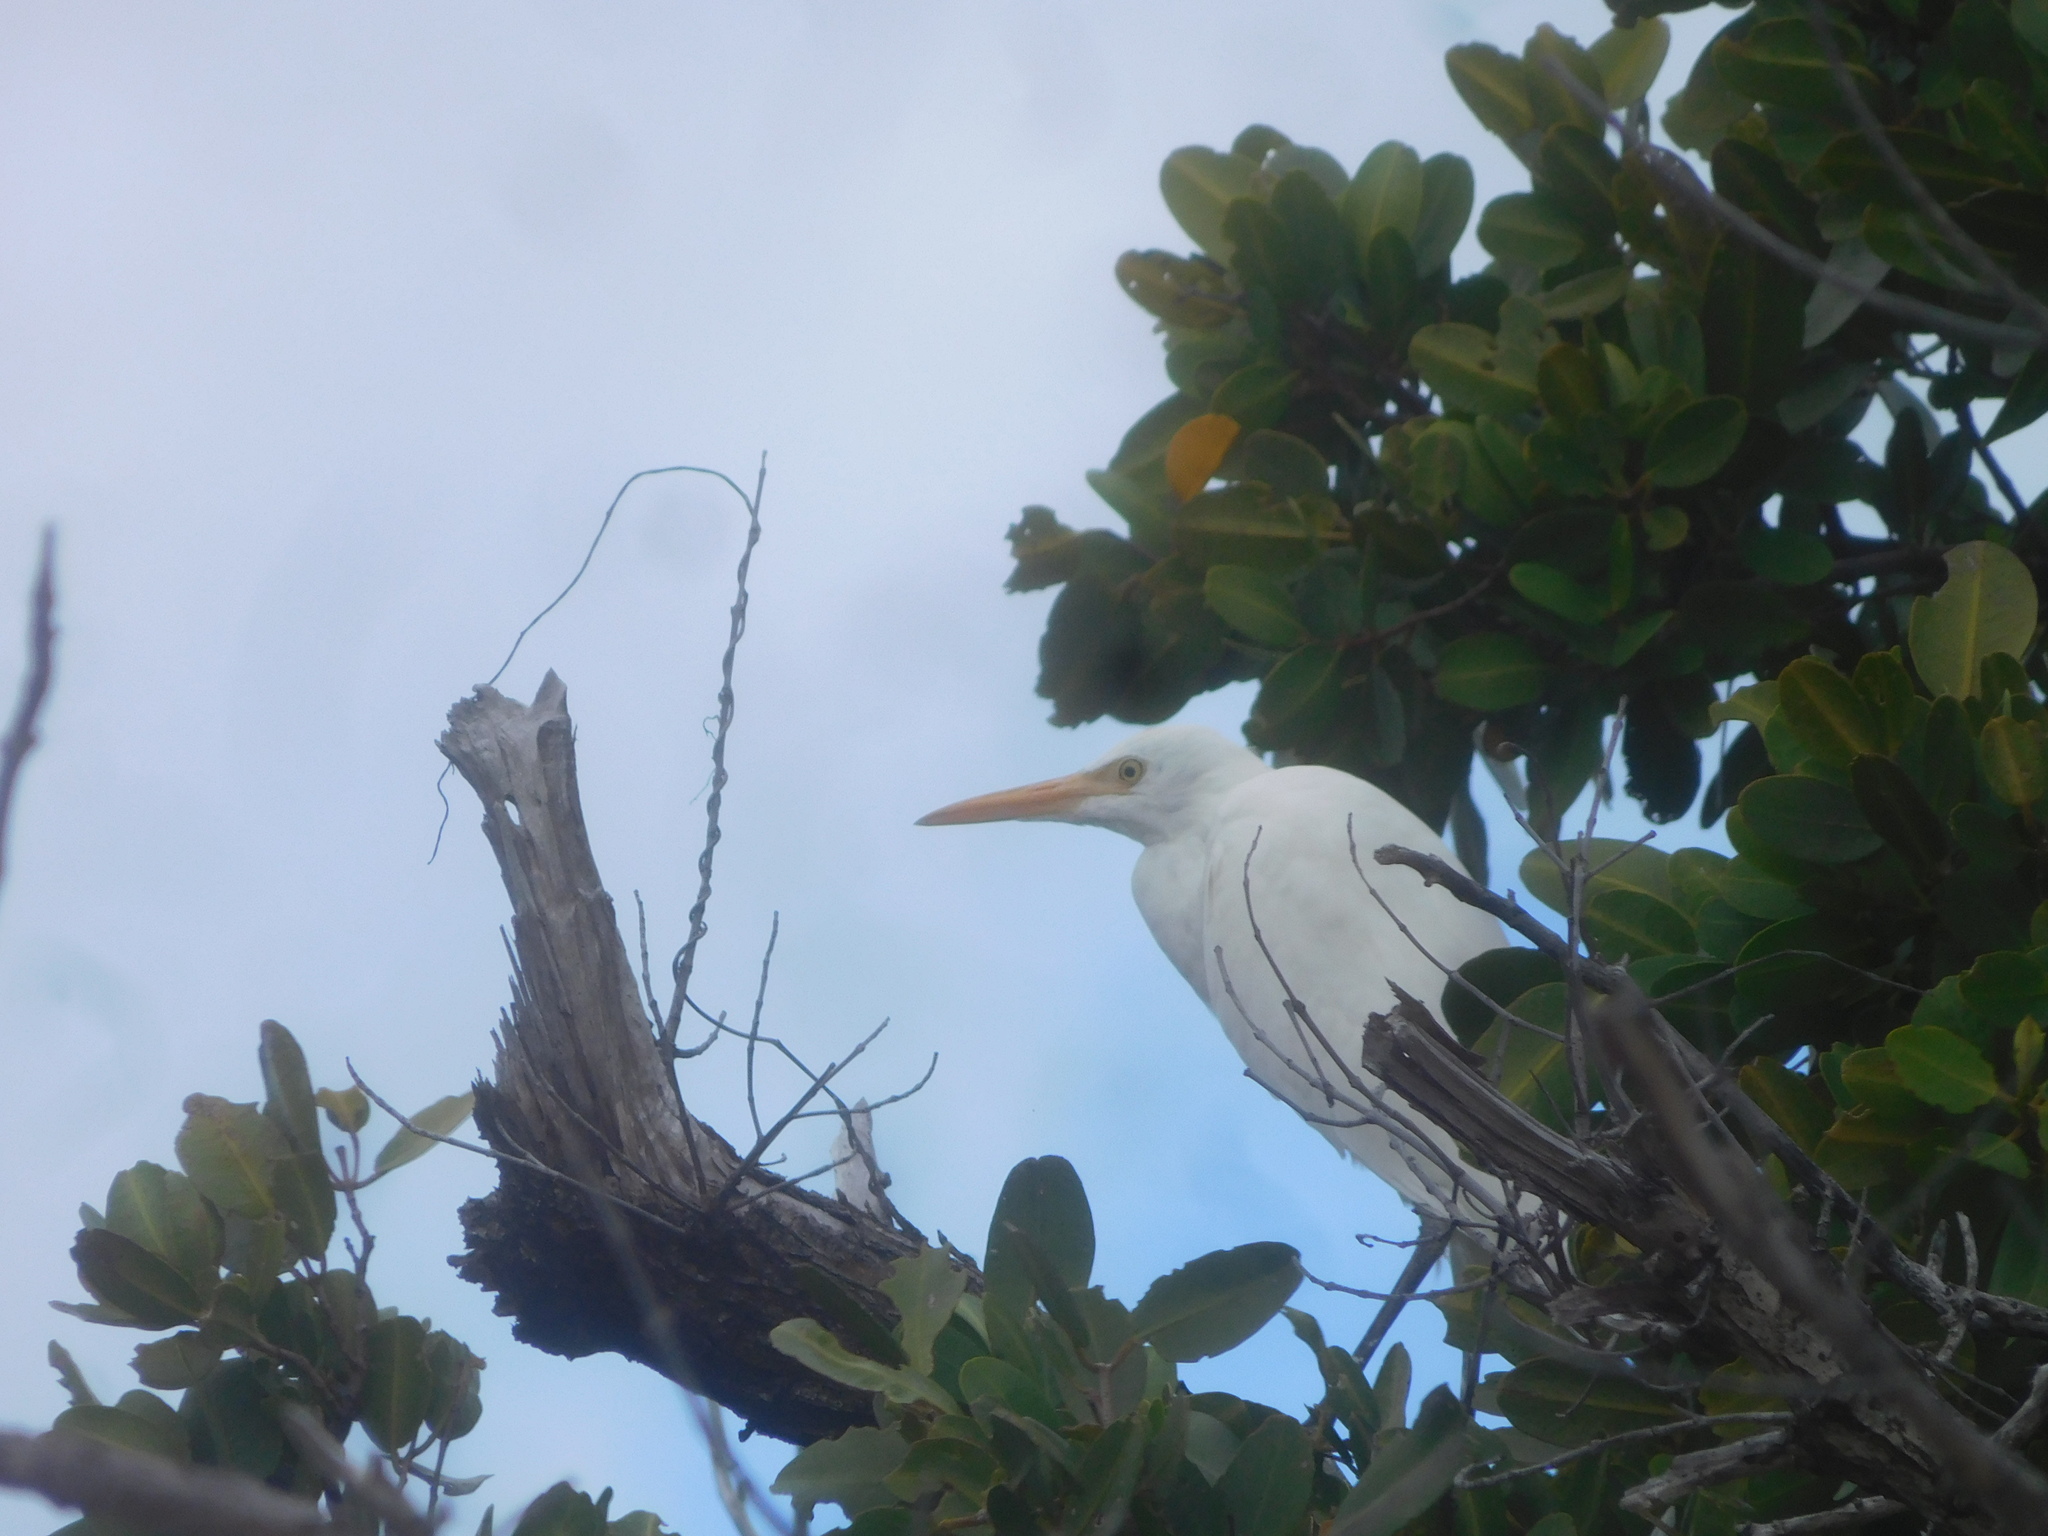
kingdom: Animalia
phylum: Chordata
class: Aves
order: Pelecaniformes
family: Ardeidae
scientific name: Ardeidae
